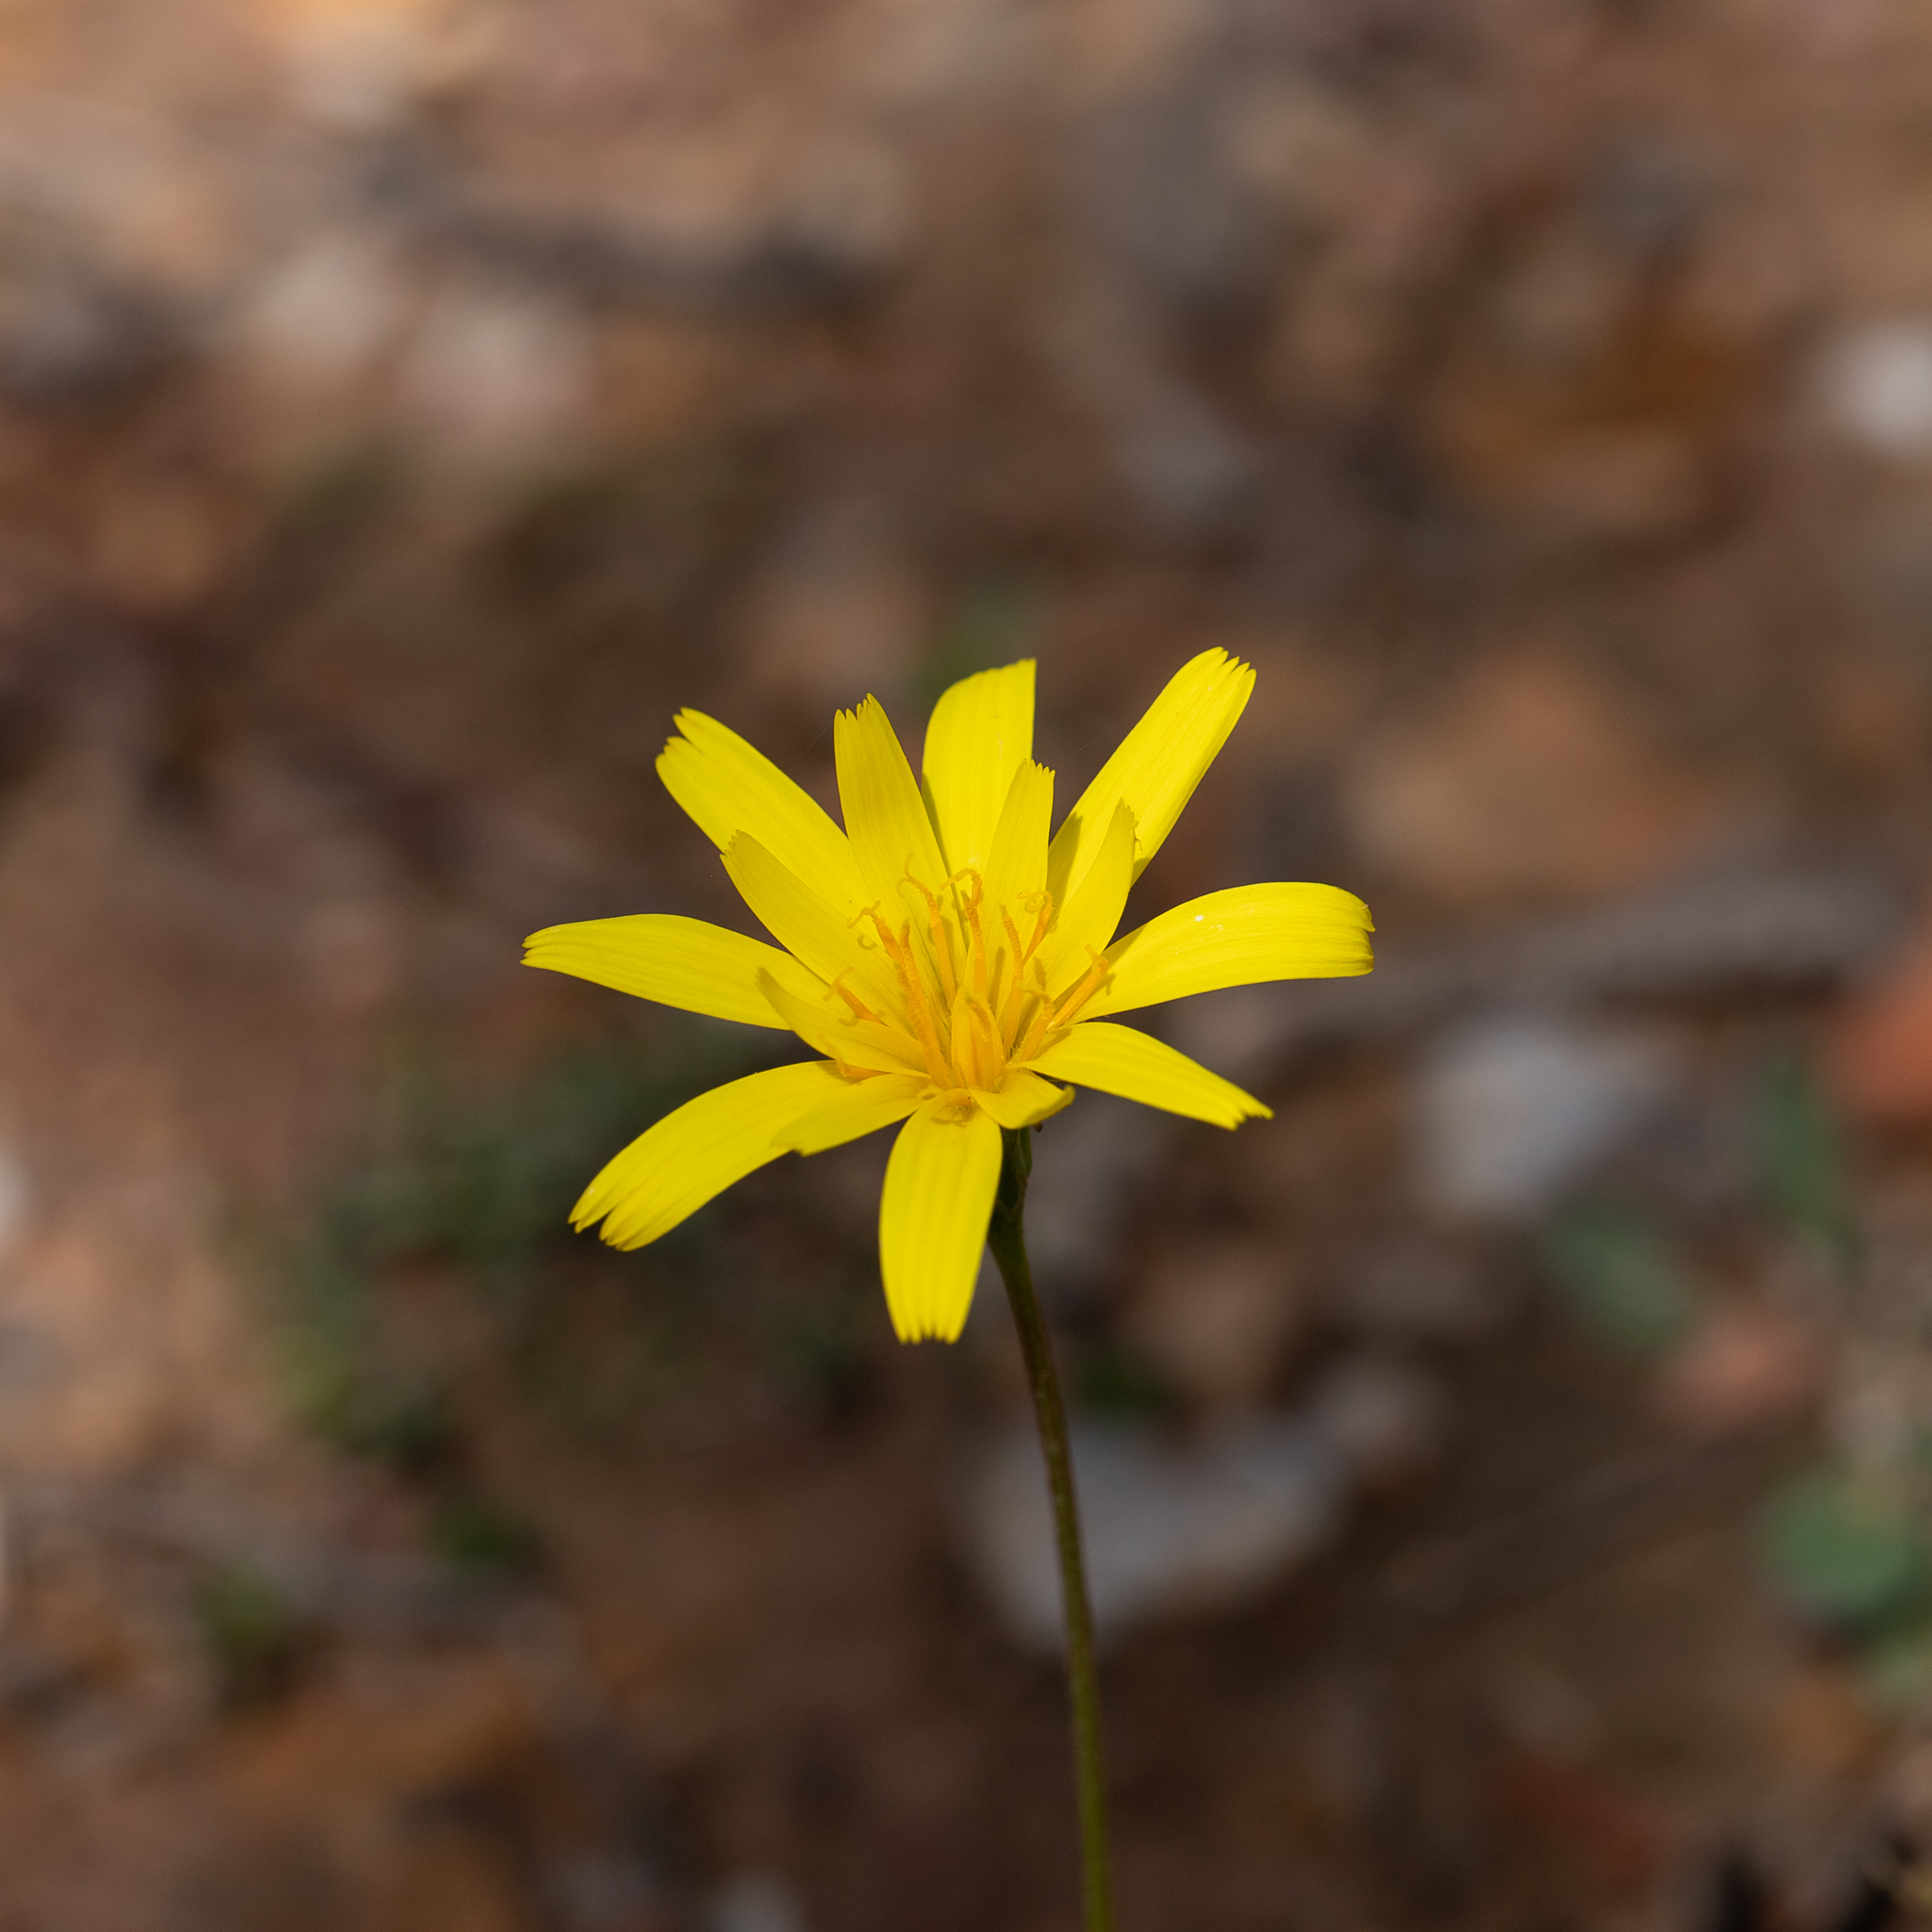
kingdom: Plantae
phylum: Tracheophyta
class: Magnoliopsida
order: Asterales
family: Asteraceae
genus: Microseris
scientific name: Microseris lanceolata
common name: Yam daisy
